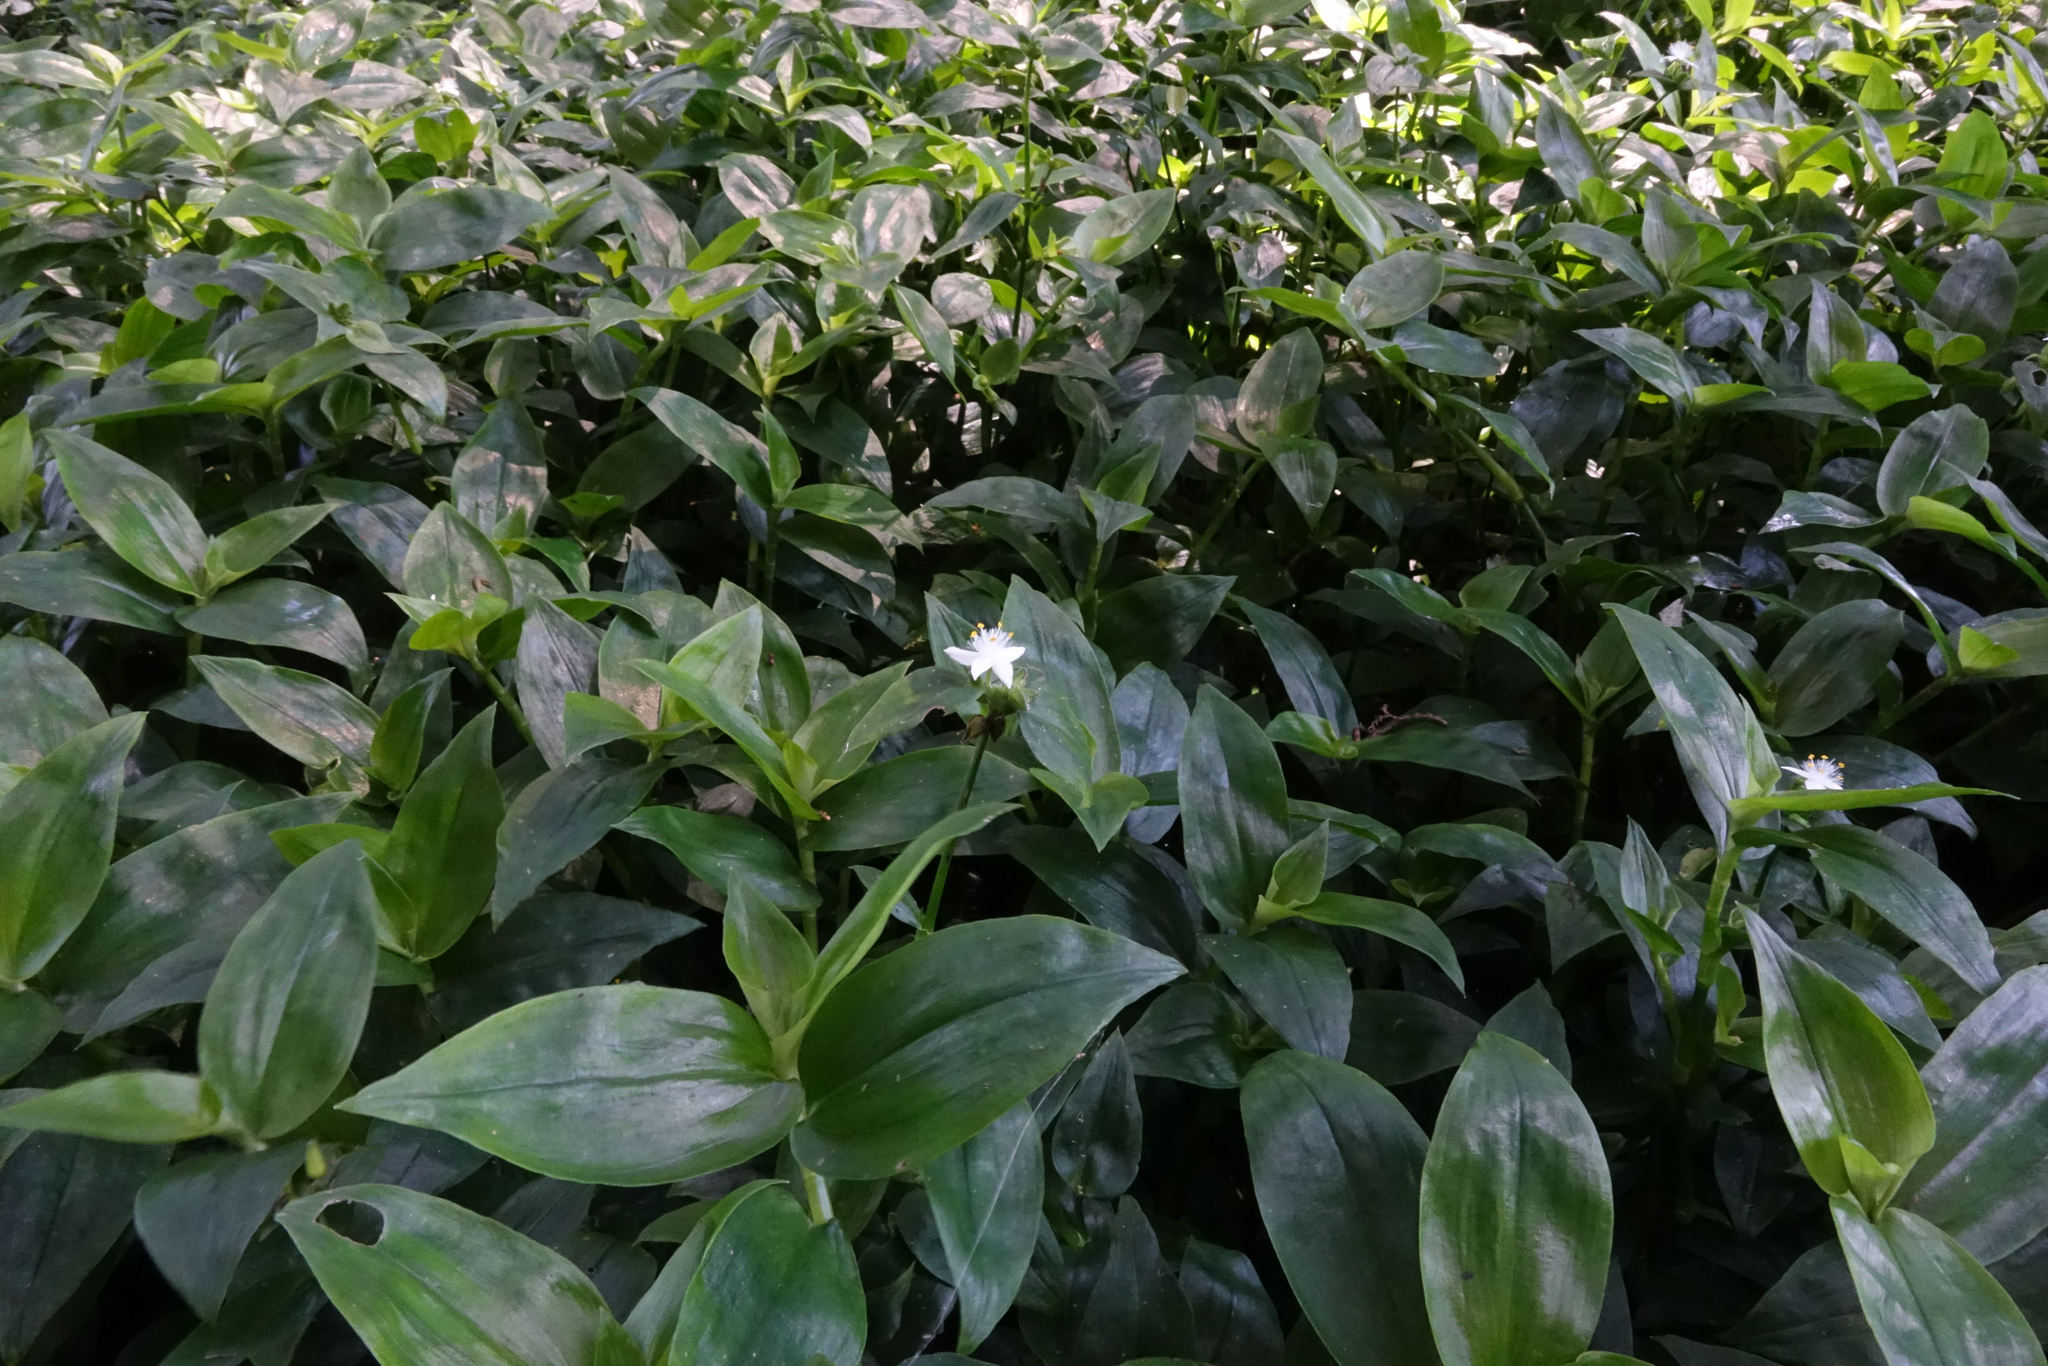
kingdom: Plantae
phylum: Tracheophyta
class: Liliopsida
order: Commelinales
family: Commelinaceae
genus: Tradescantia
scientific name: Tradescantia fluminensis
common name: Wandering-jew
